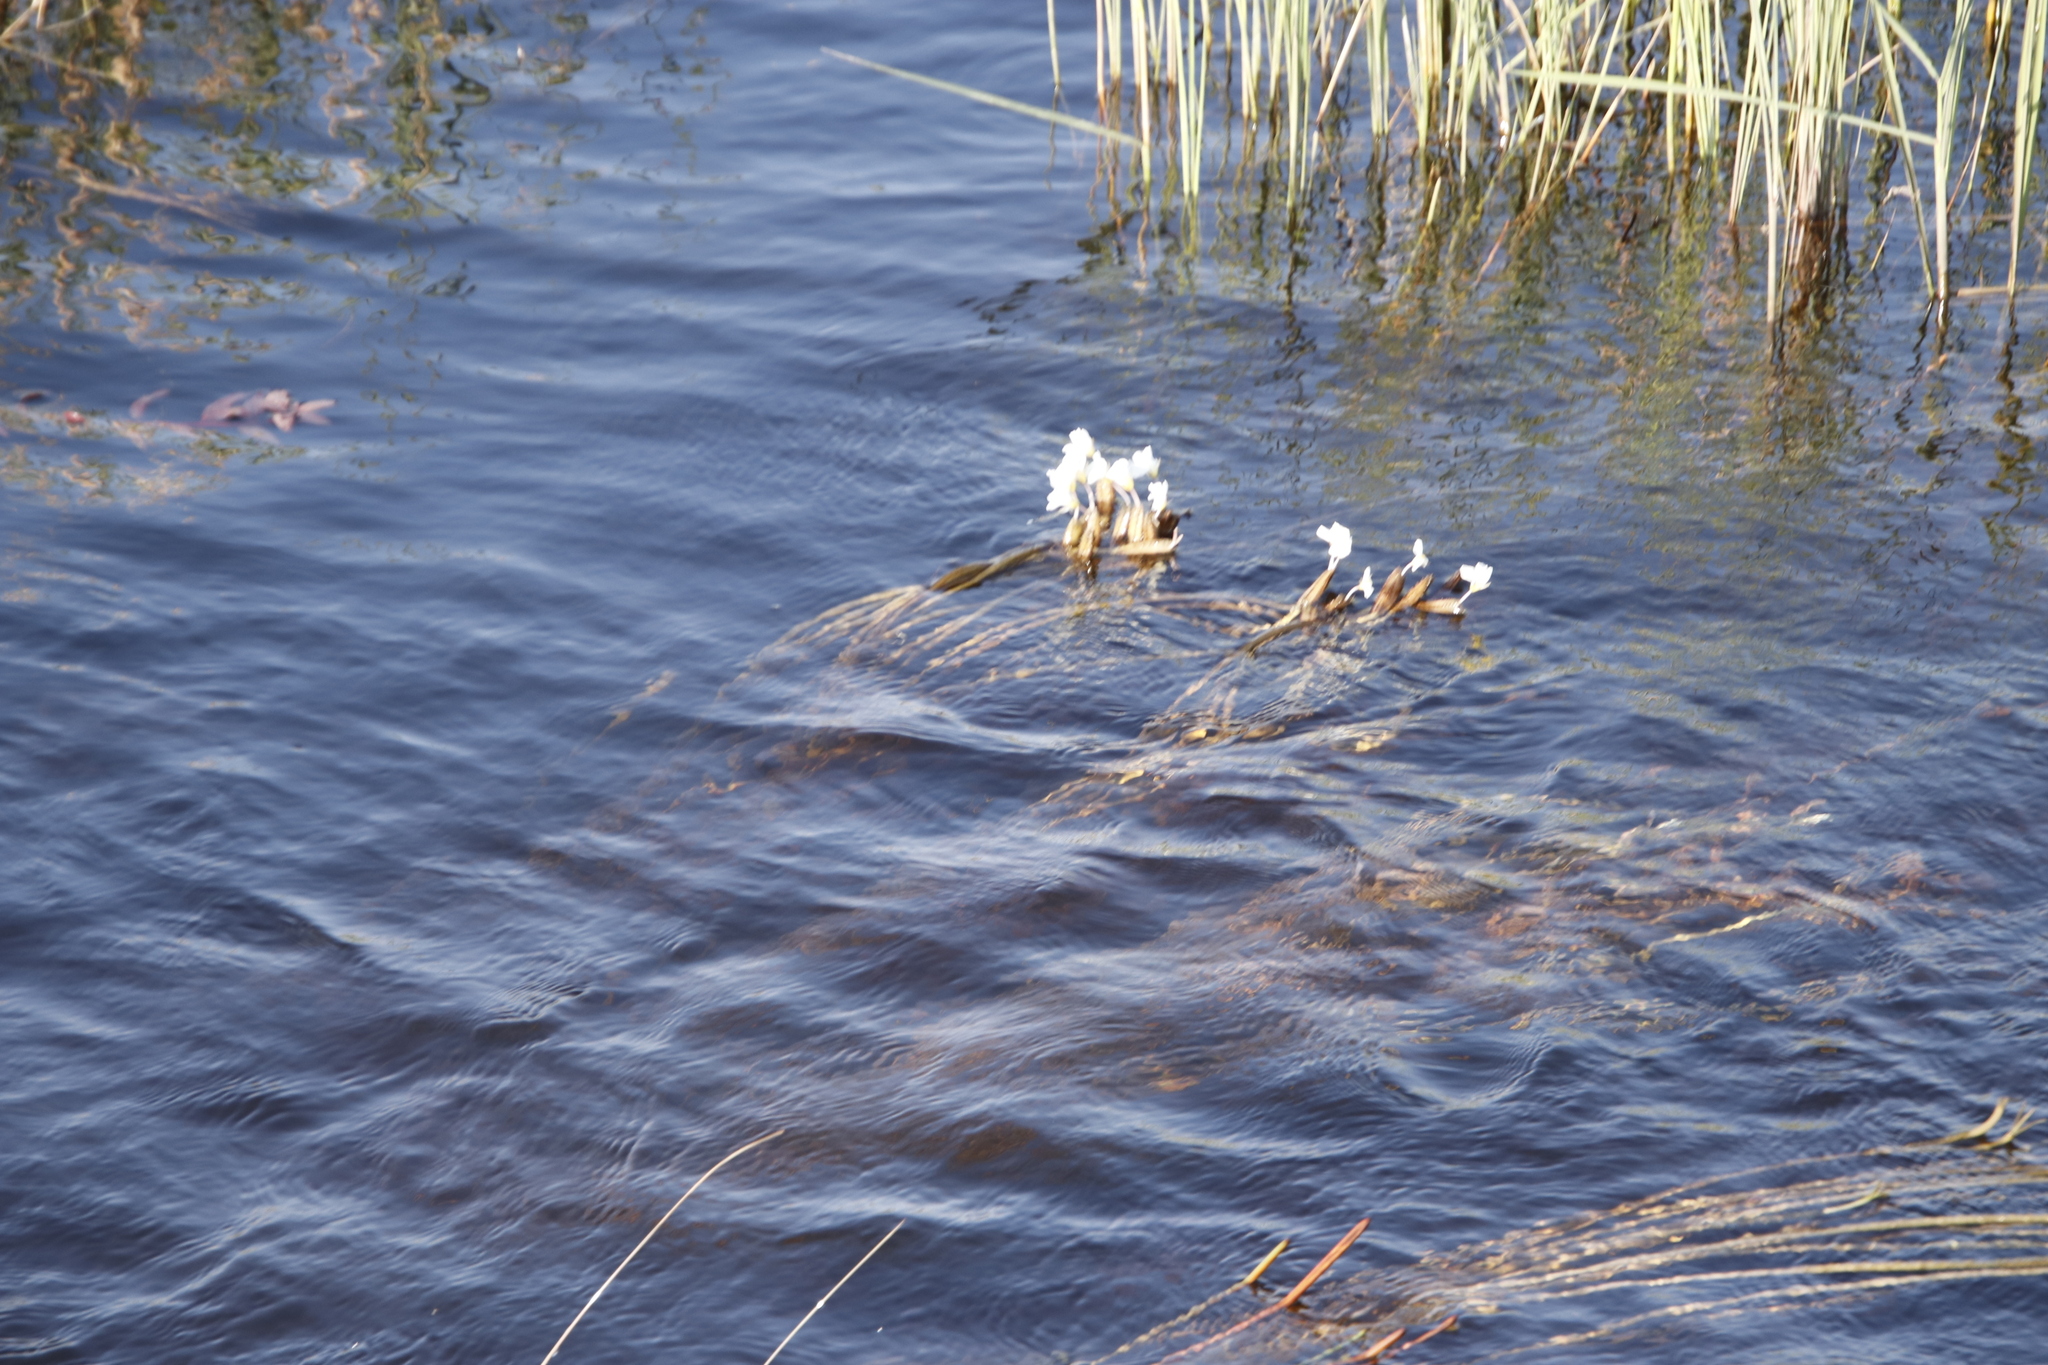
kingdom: Plantae
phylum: Tracheophyta
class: Liliopsida
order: Alismatales
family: Hydrocharitaceae
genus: Ottelia
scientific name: Ottelia muricata
